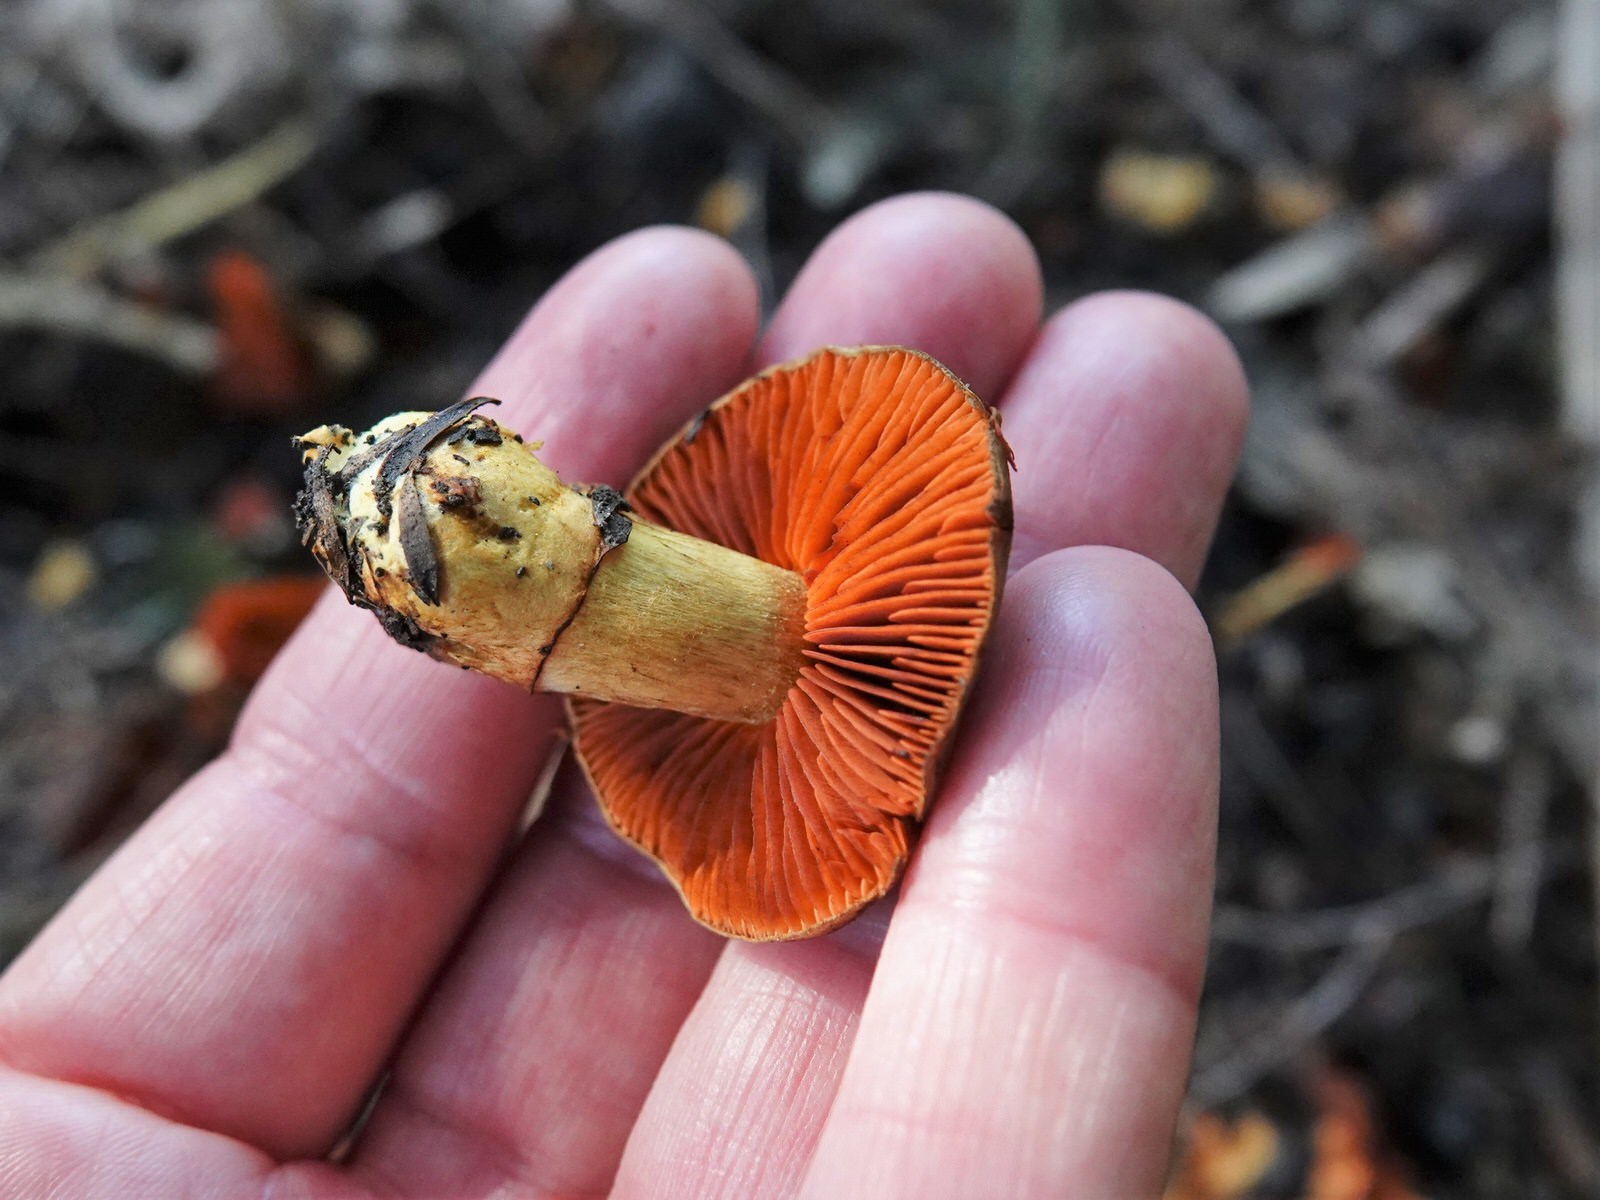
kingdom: Fungi
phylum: Basidiomycota
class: Agaricomycetes
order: Agaricales
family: Cortinariaceae
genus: Cortinarius
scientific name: Cortinarius persplendidus
